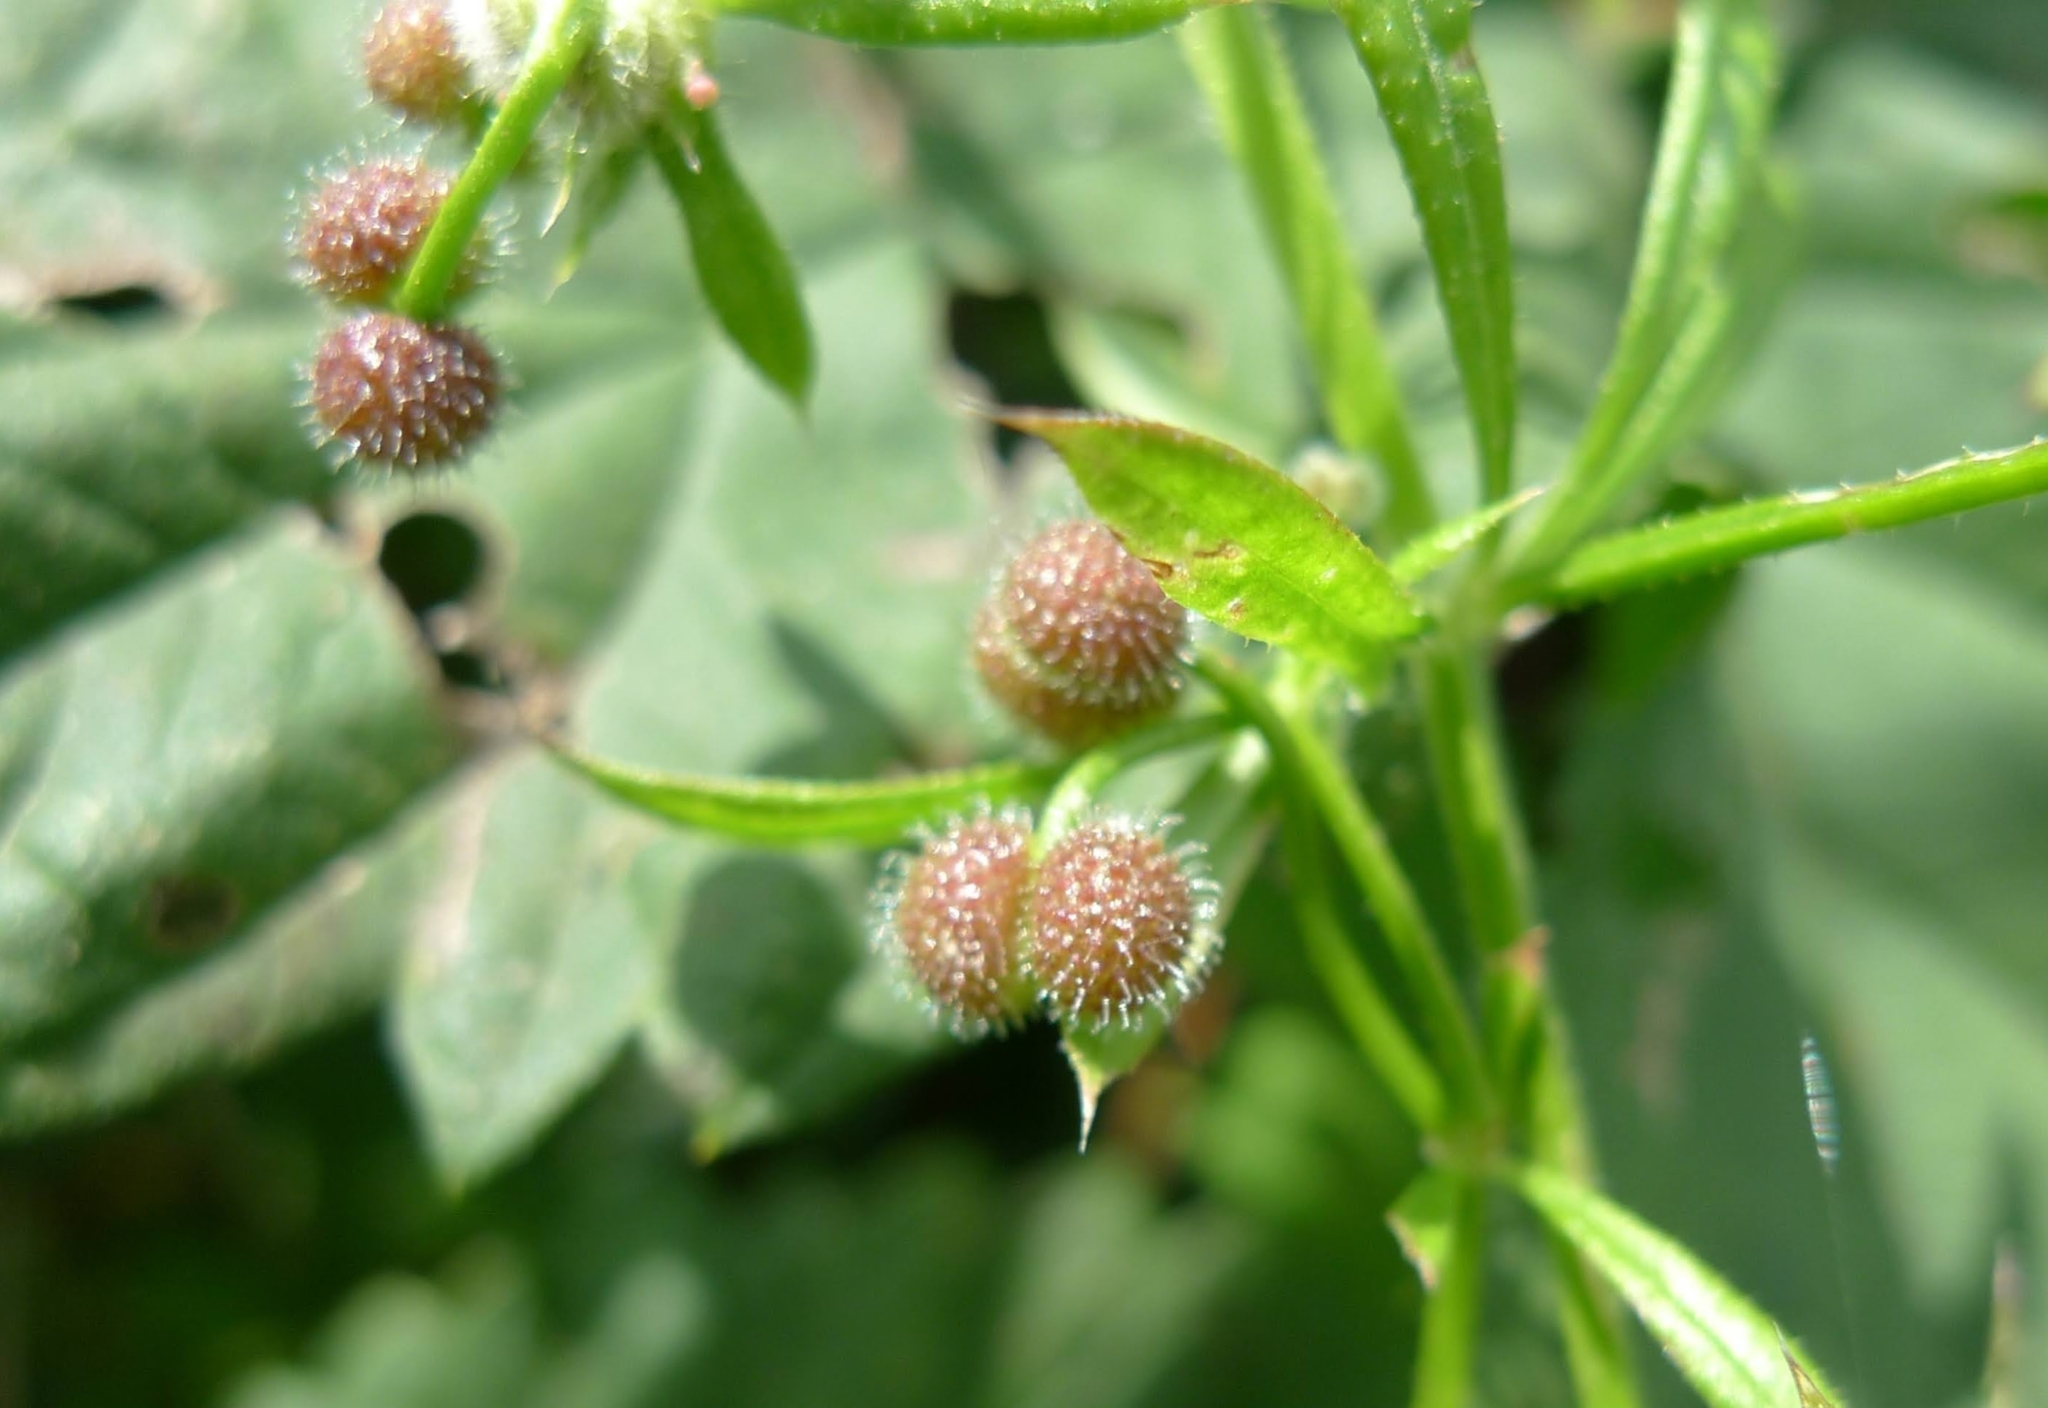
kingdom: Plantae
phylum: Tracheophyta
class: Magnoliopsida
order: Gentianales
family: Rubiaceae
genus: Galium
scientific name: Galium aparine
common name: Cleavers
